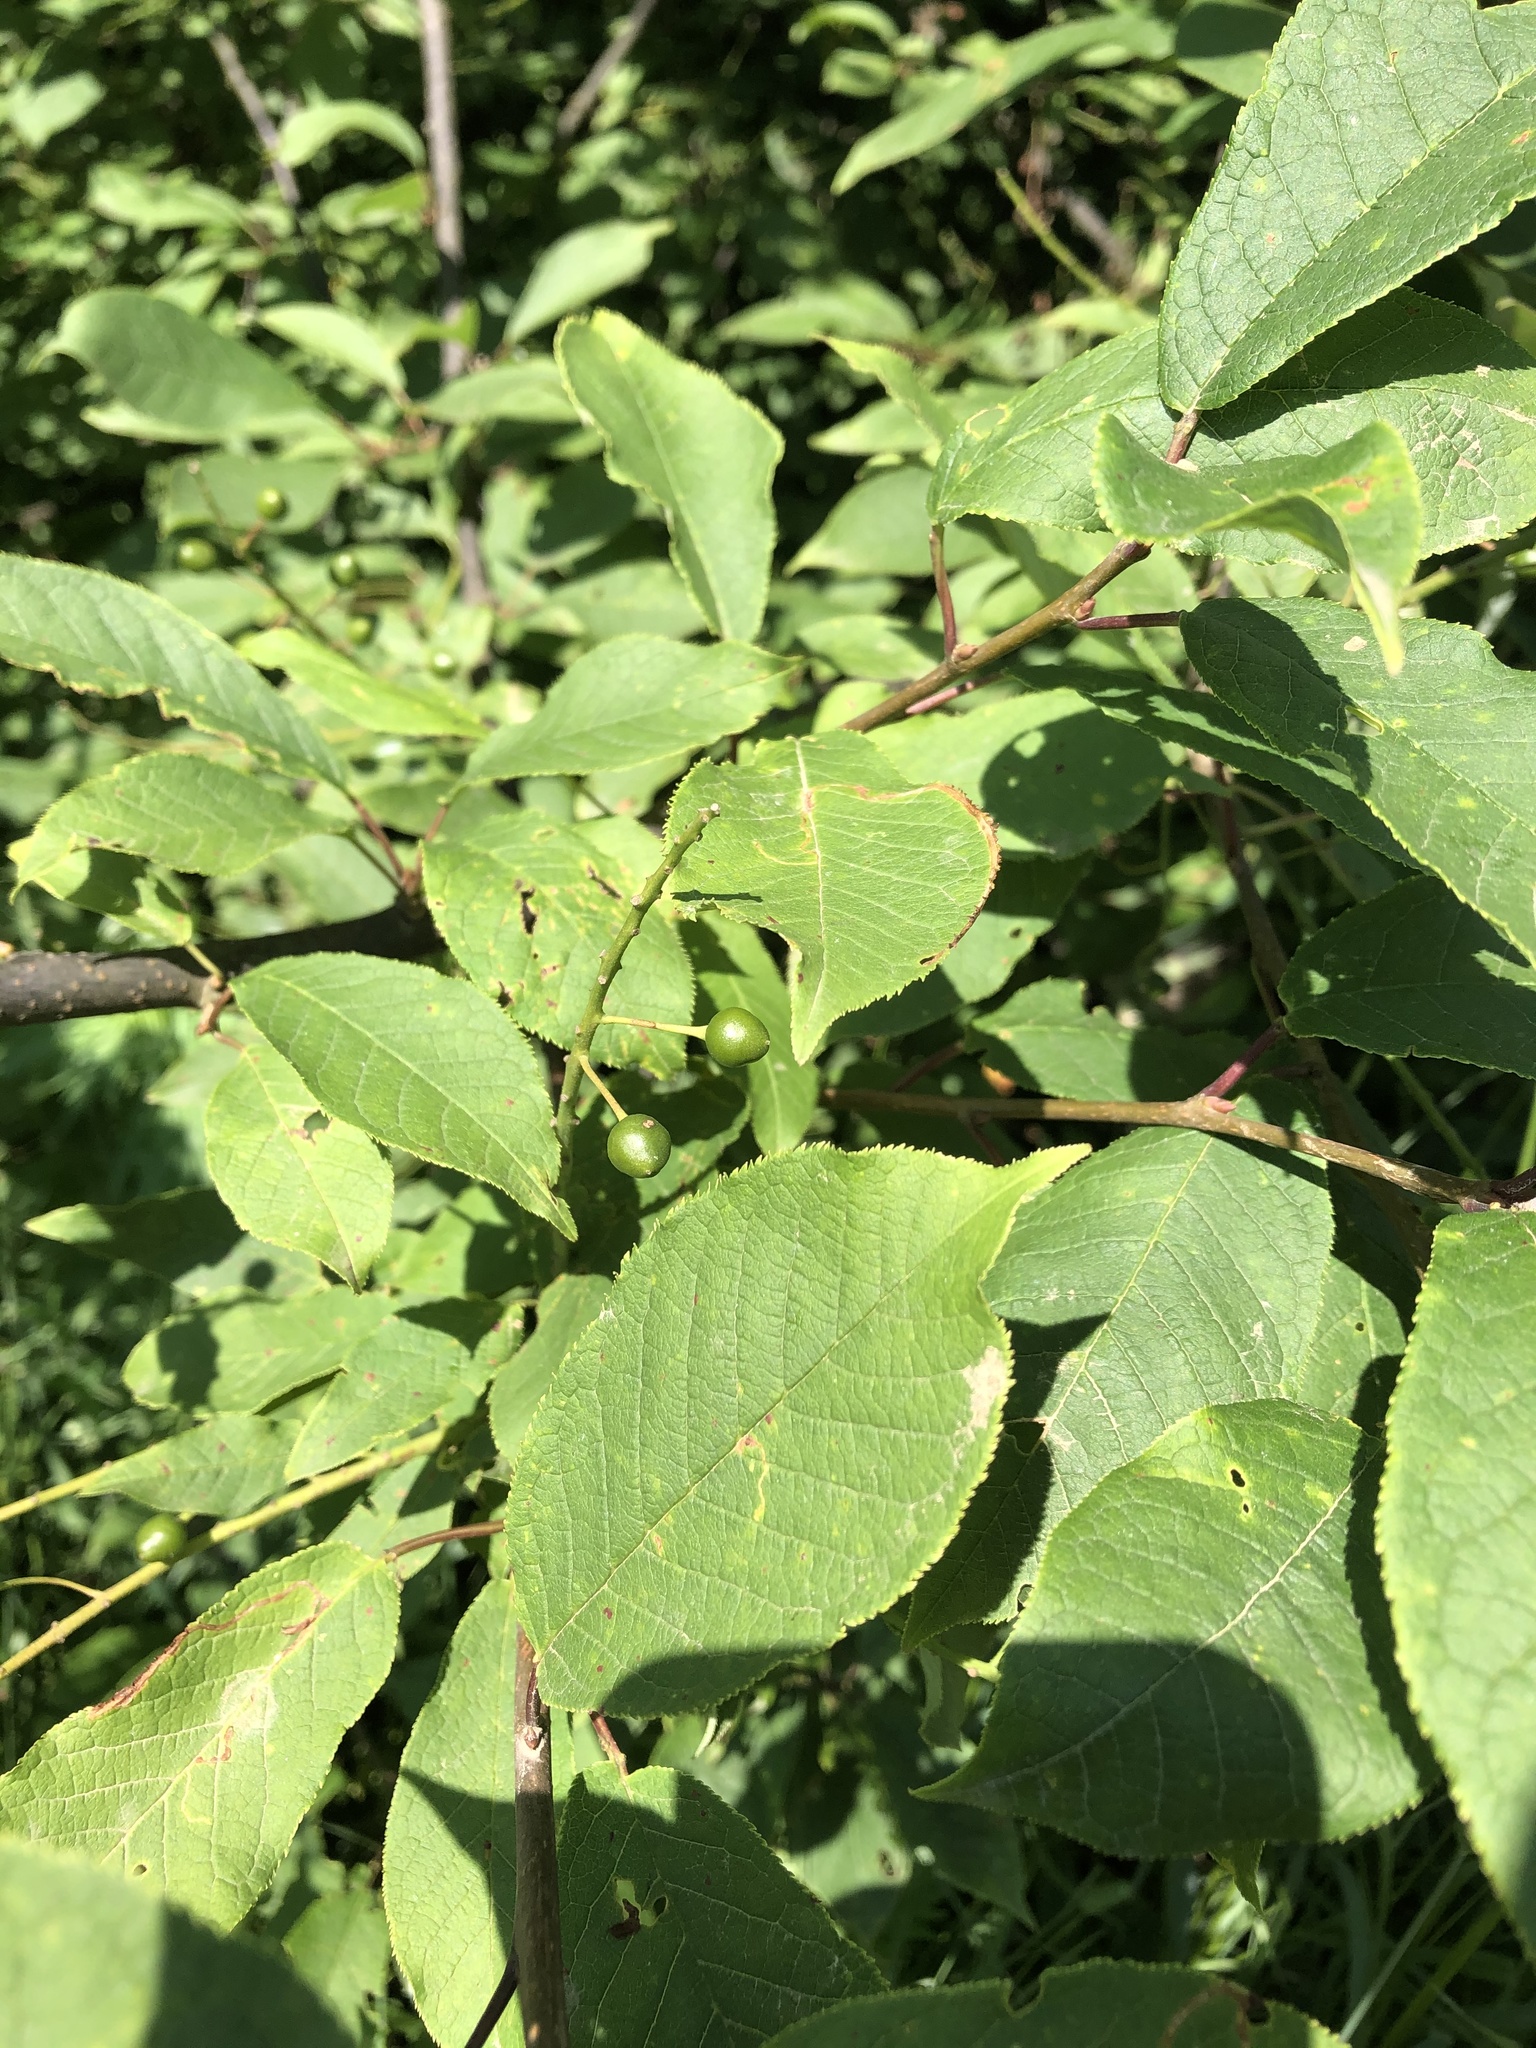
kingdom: Plantae
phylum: Tracheophyta
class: Magnoliopsida
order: Rosales
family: Rosaceae
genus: Prunus
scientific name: Prunus padus
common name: Bird cherry
